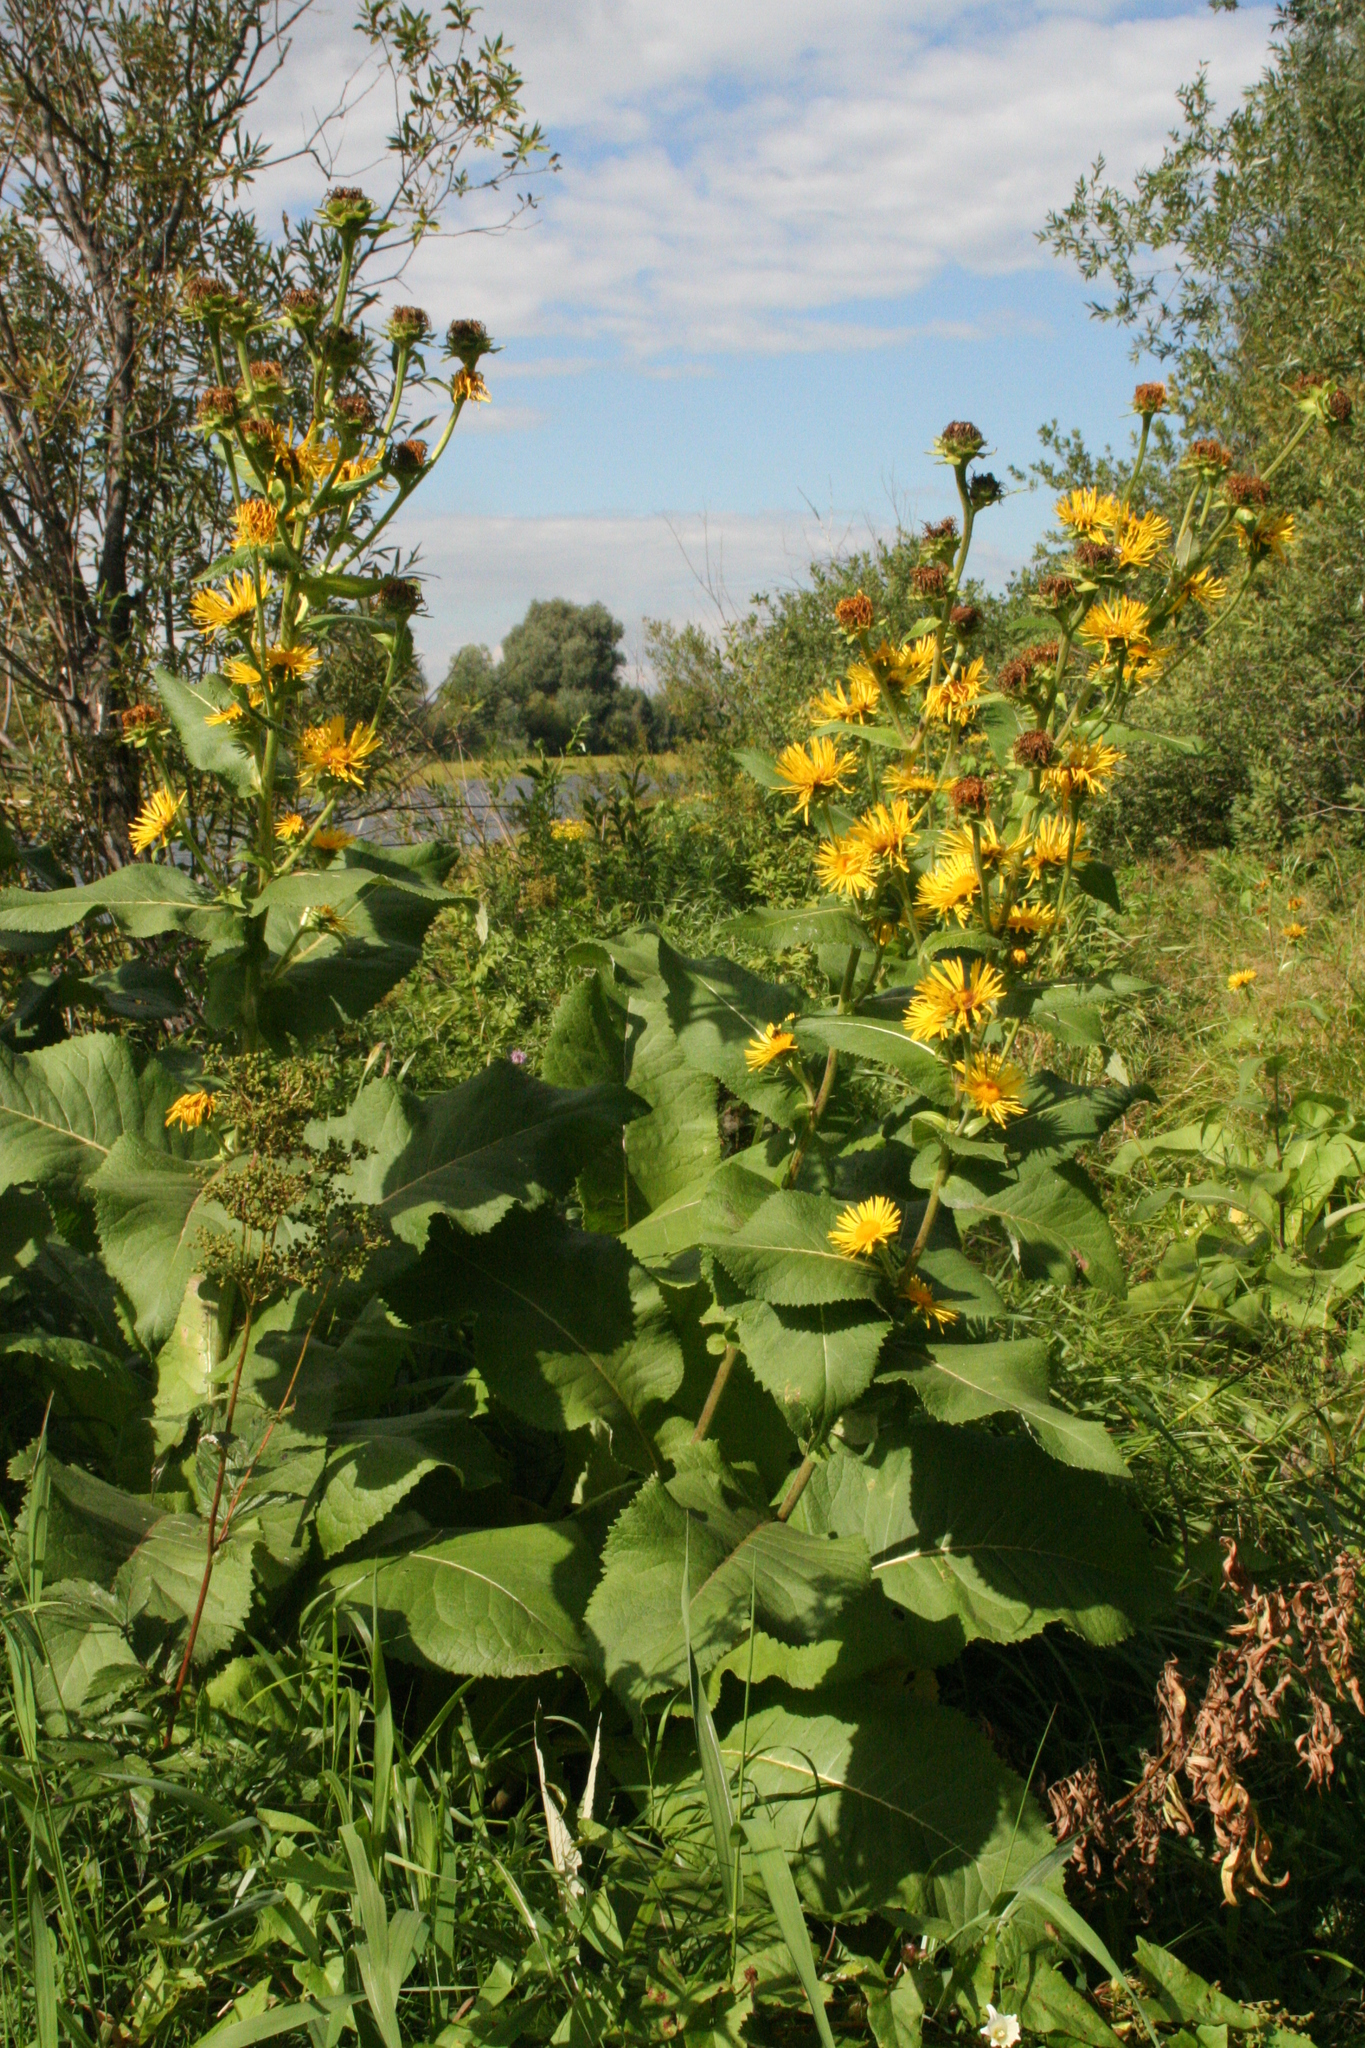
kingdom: Plantae
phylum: Tracheophyta
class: Magnoliopsida
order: Asterales
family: Asteraceae
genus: Inula
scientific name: Inula helenium
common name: Elecampane
